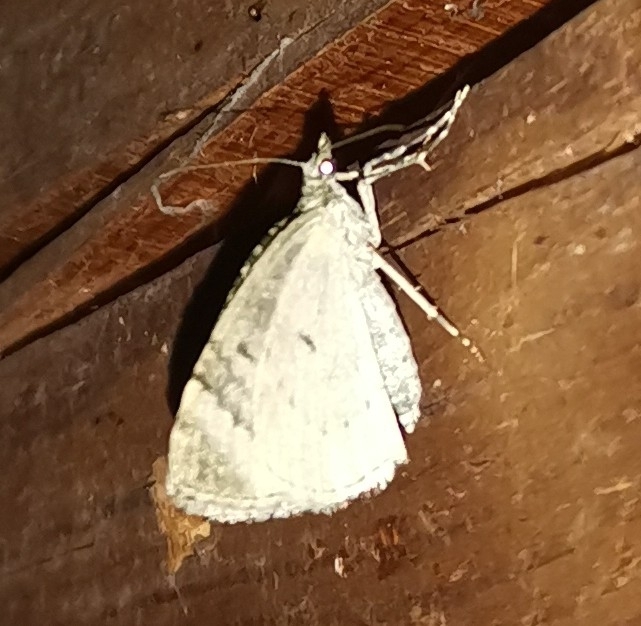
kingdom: Animalia
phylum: Arthropoda
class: Insecta
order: Lepidoptera
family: Geometridae
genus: Chloroclysta
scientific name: Chloroclysta miata
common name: Autumn green carpet
